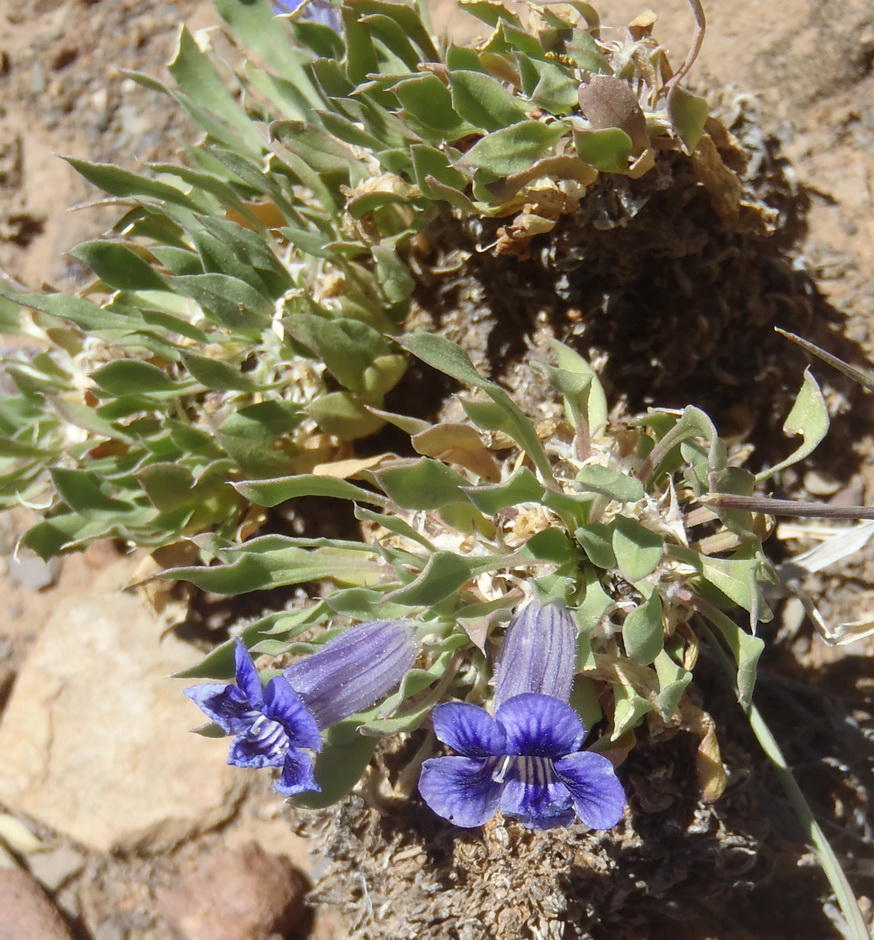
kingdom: Plantae
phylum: Tracheophyta
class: Magnoliopsida
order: Lamiales
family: Scrophulariaceae
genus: Aptosimum
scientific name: Aptosimum indivisum
